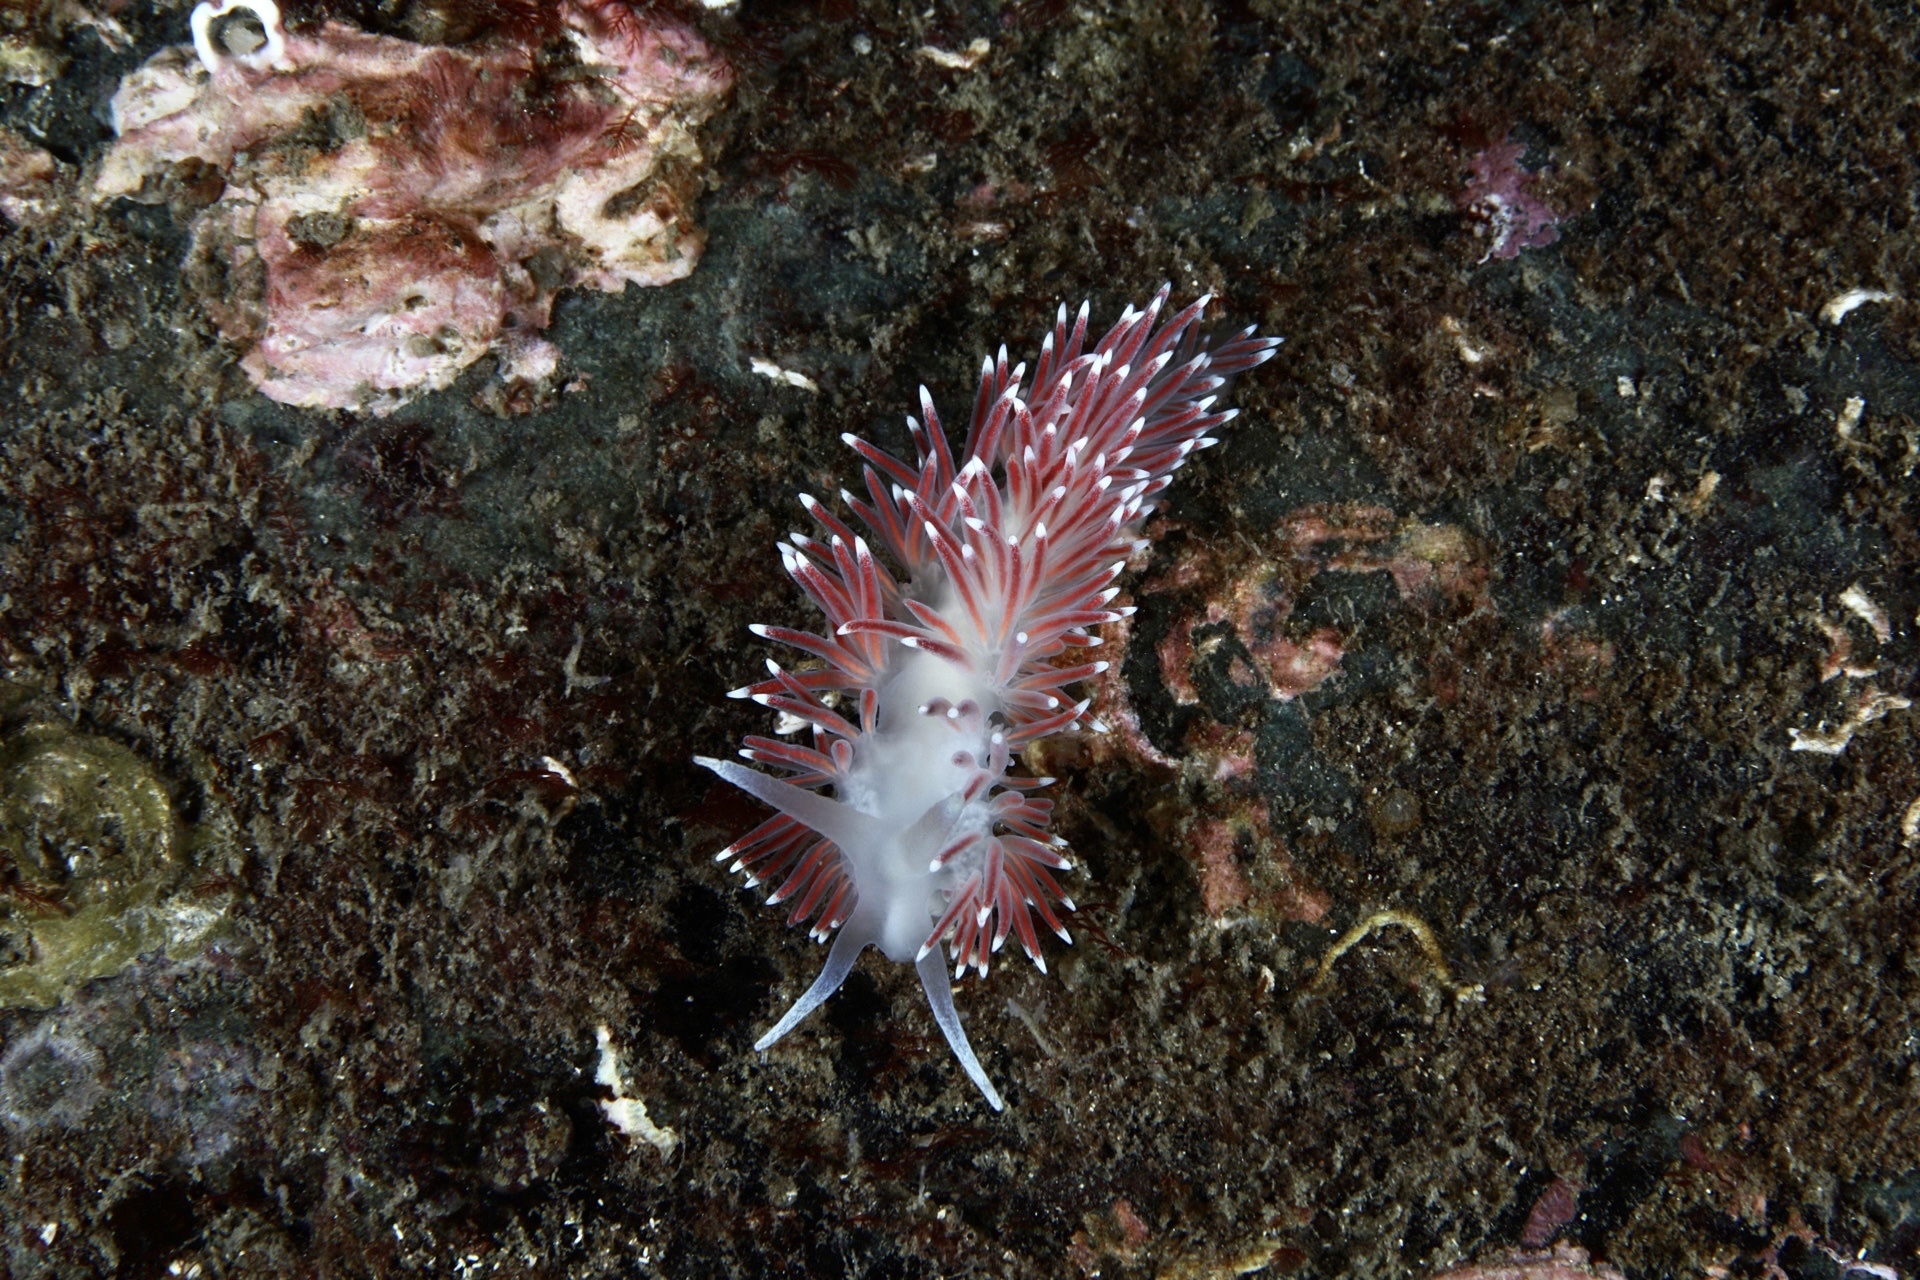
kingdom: Animalia
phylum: Mollusca
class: Gastropoda
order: Nudibranchia
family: Flabellinidae
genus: Carronella
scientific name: Carronella pellucida
